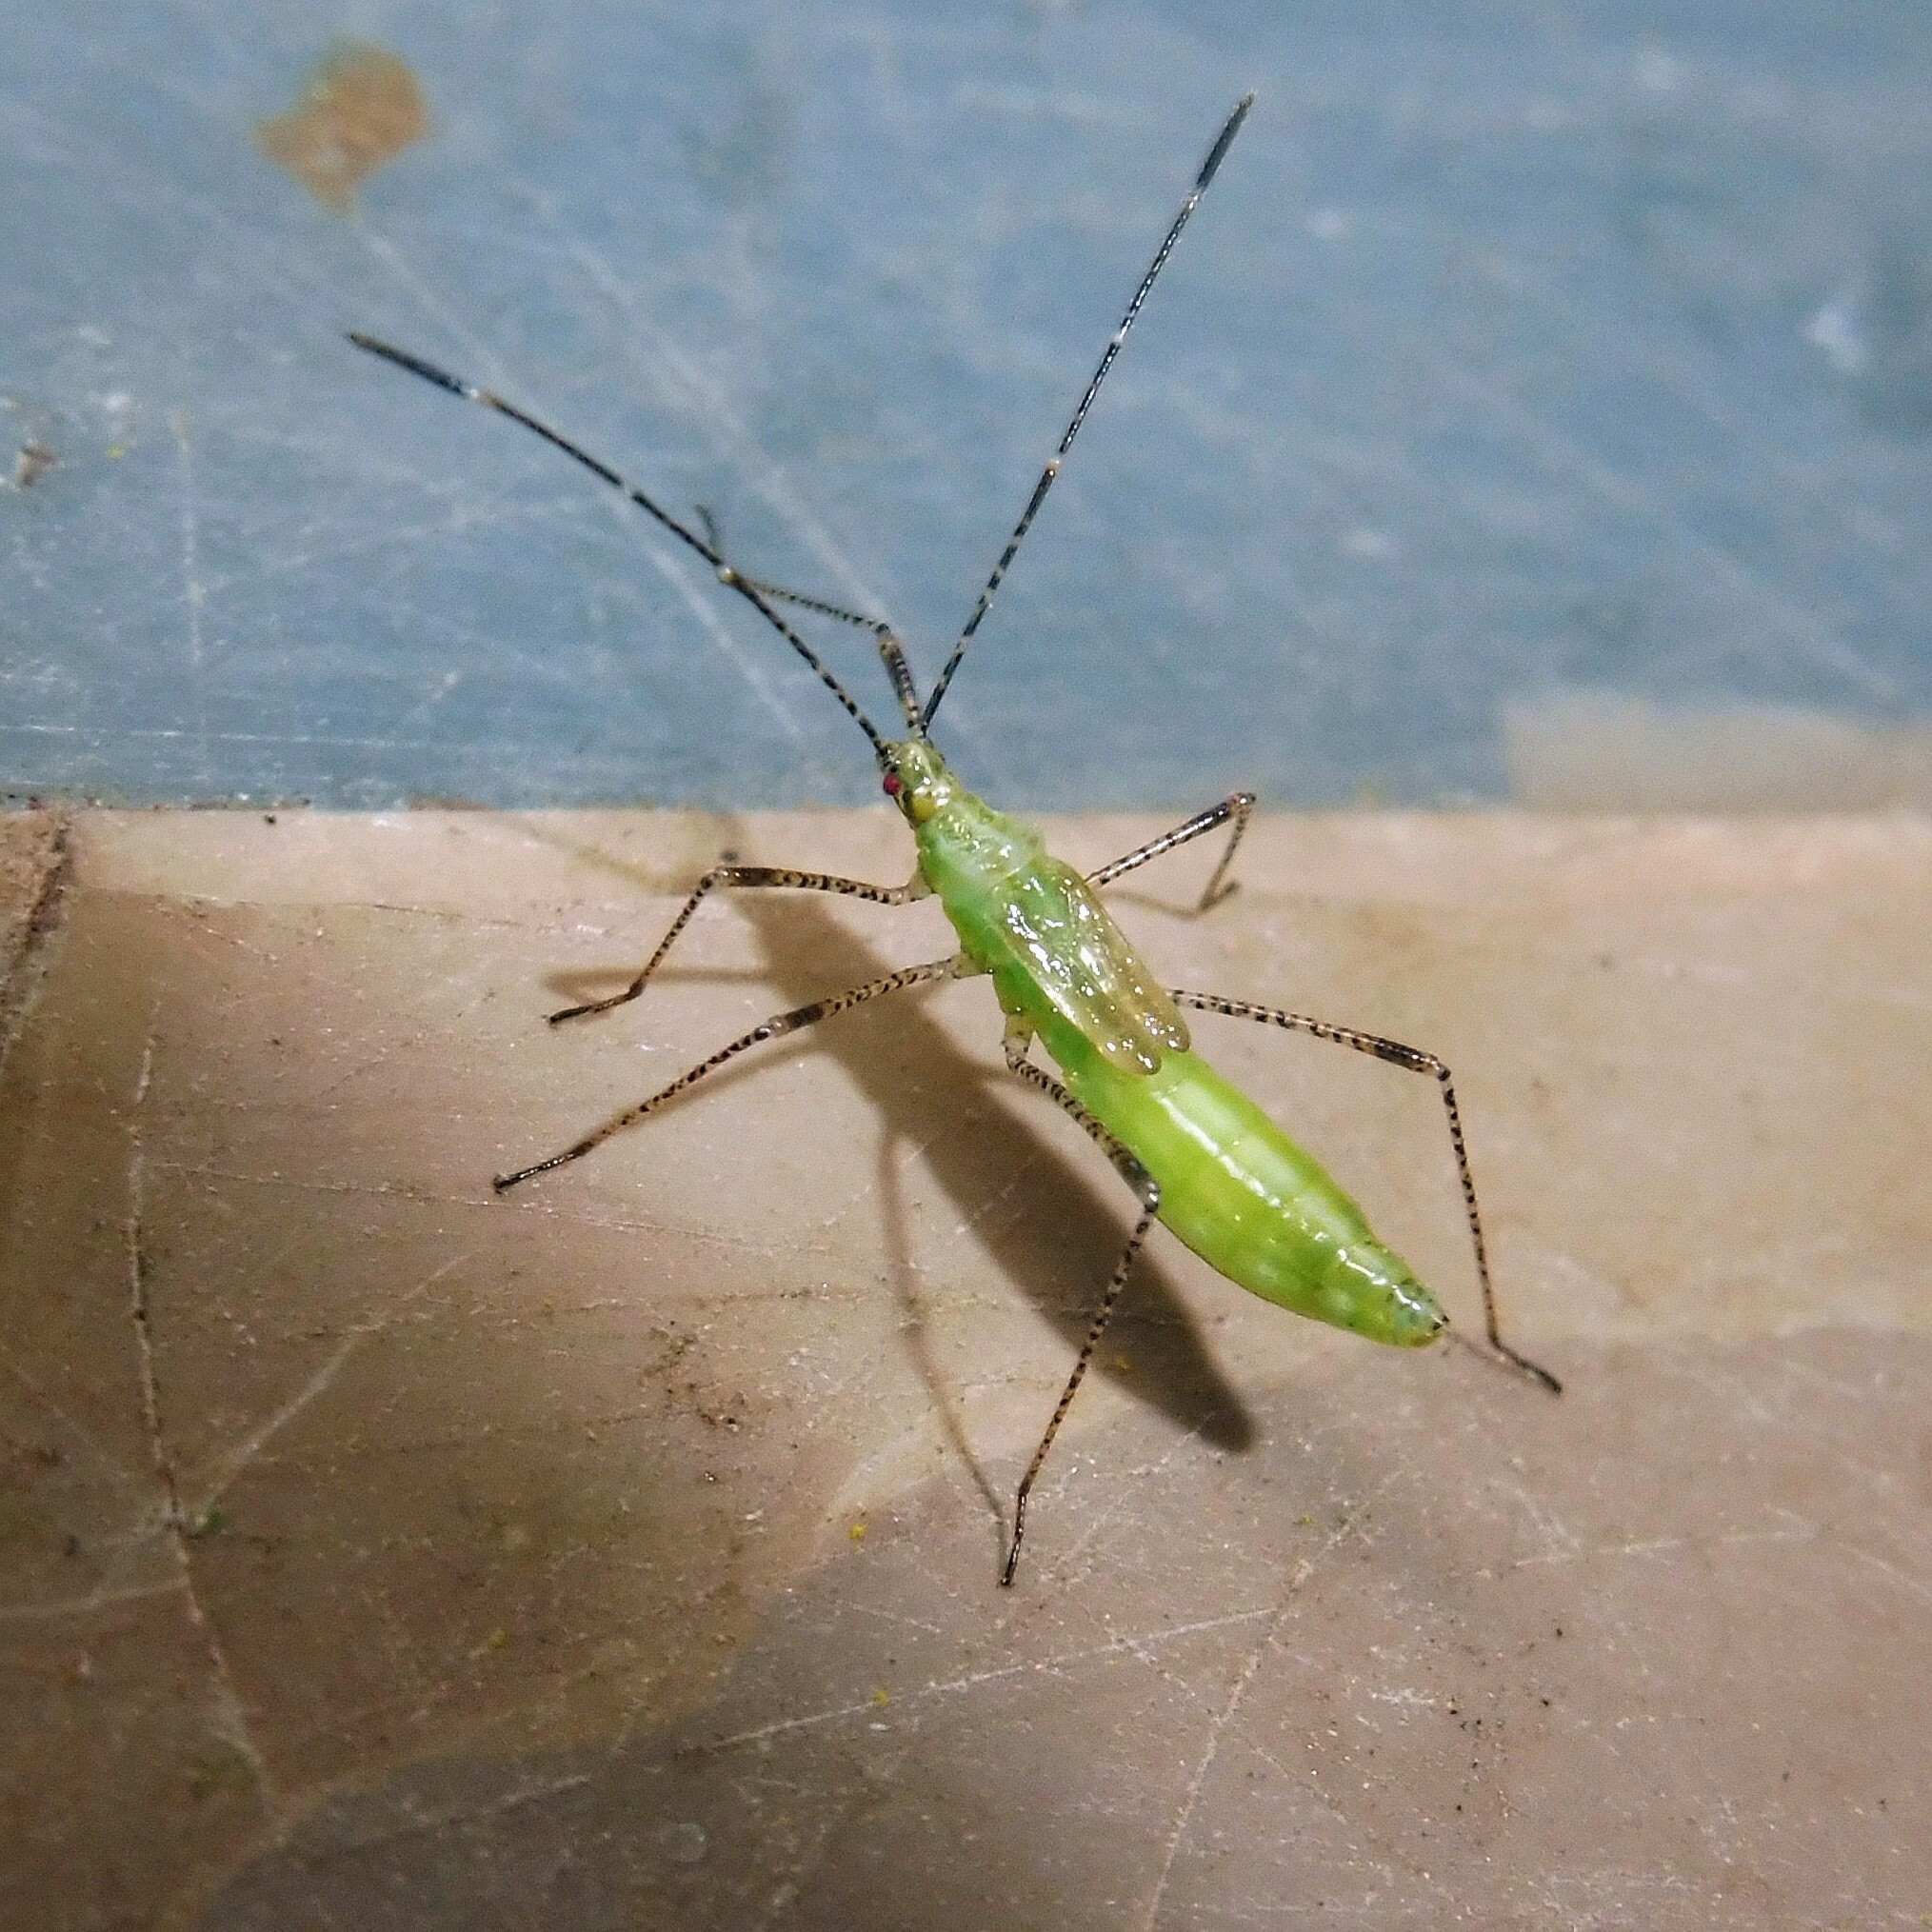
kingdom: Animalia
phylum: Arthropoda
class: Insecta
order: Hemiptera
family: Berytidae
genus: Metatropis
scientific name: Metatropis rufescens
